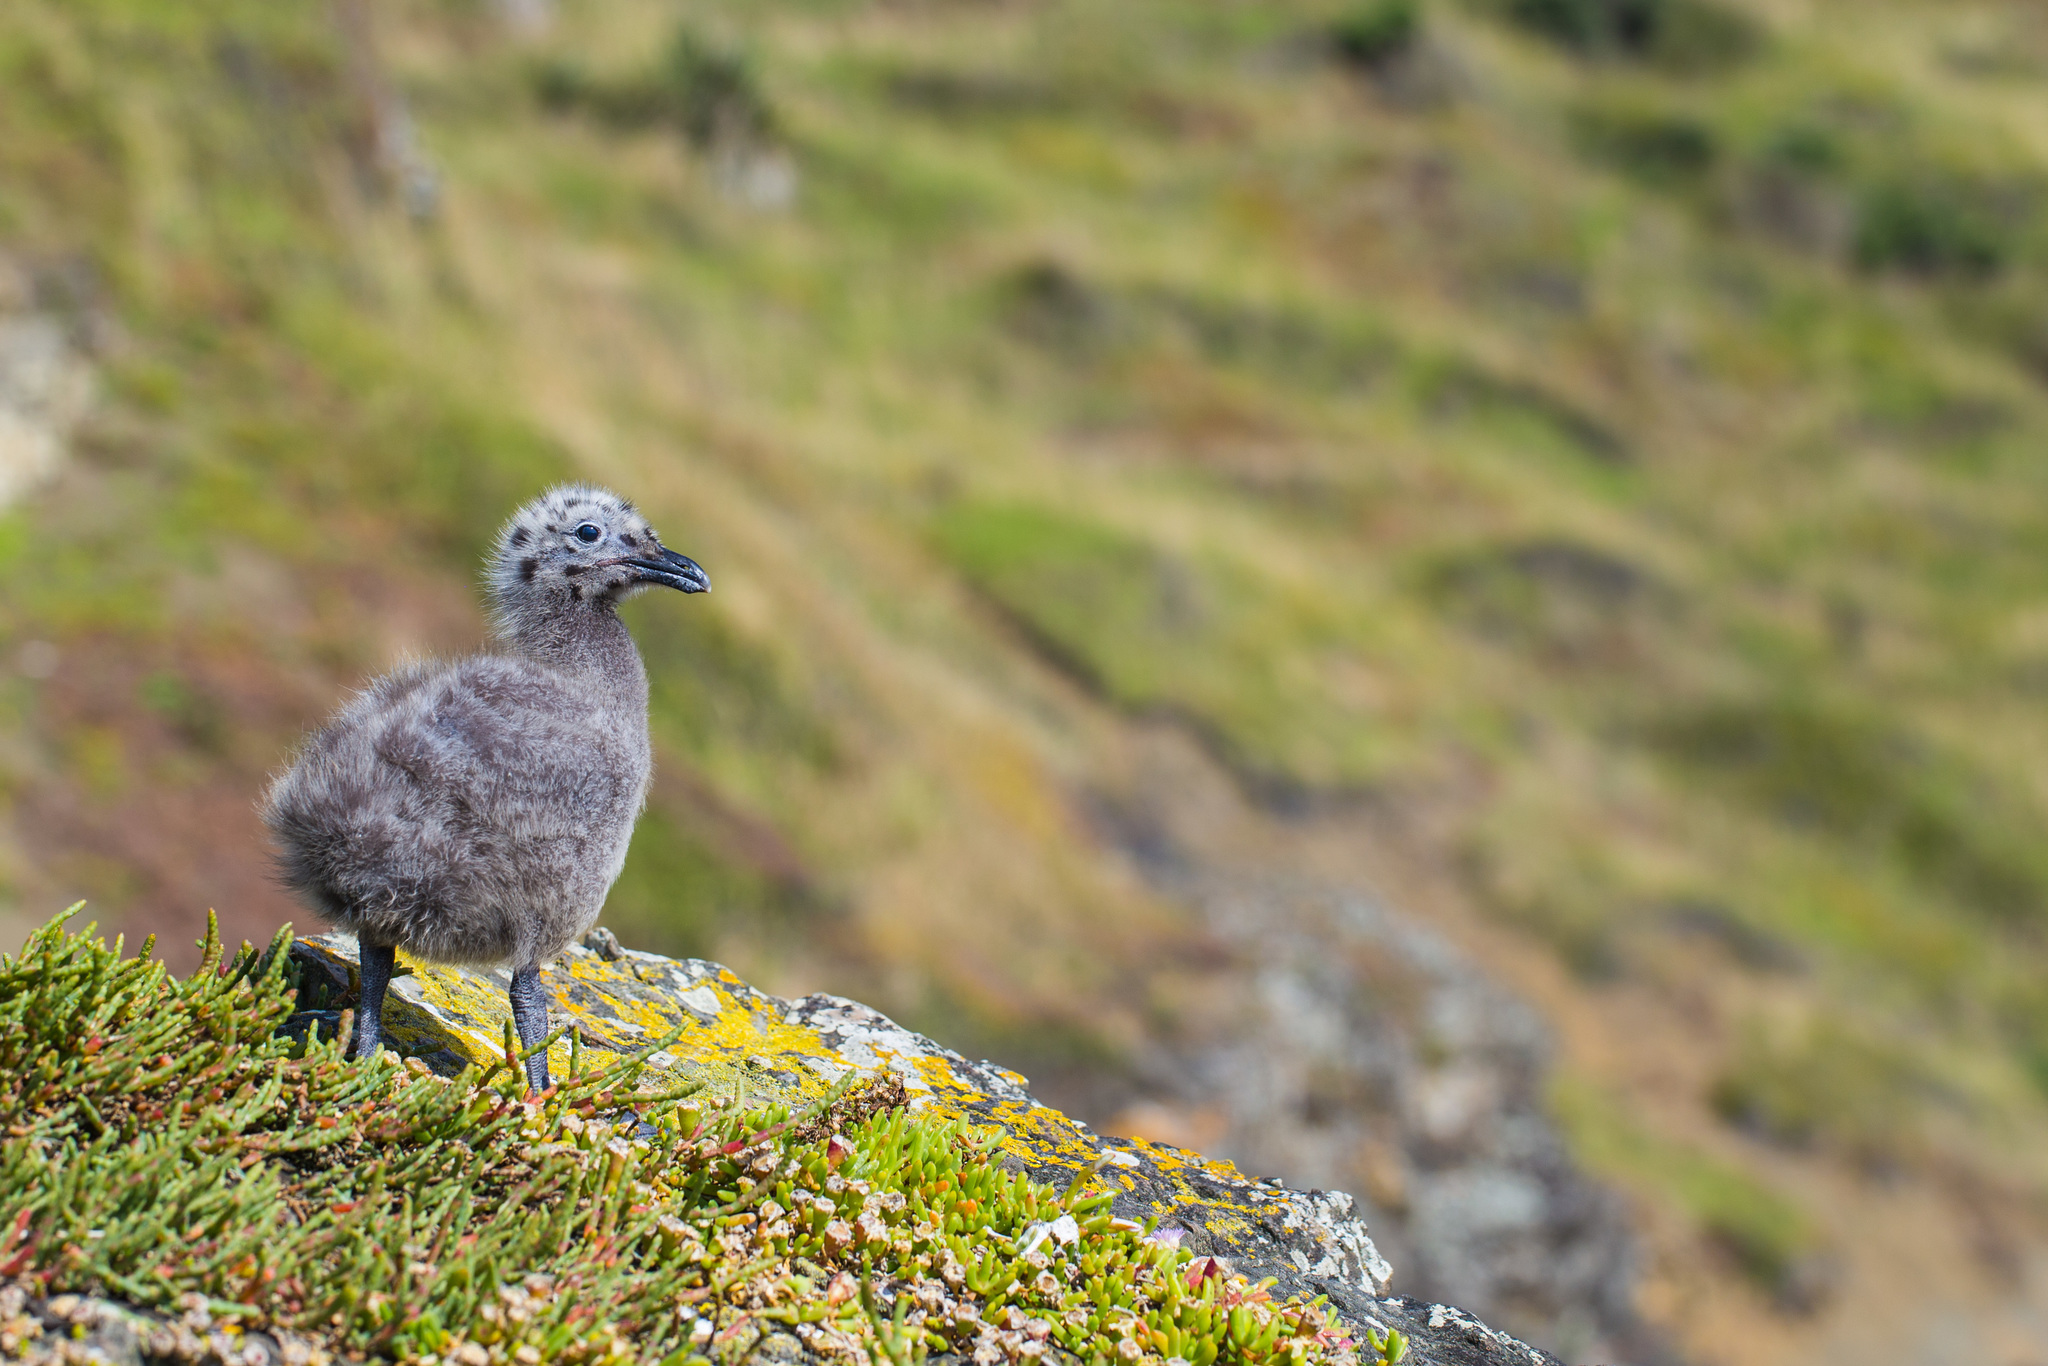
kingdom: Animalia
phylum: Chordata
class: Aves
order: Charadriiformes
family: Laridae
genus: Larus
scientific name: Larus dominicanus
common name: Kelp gull
